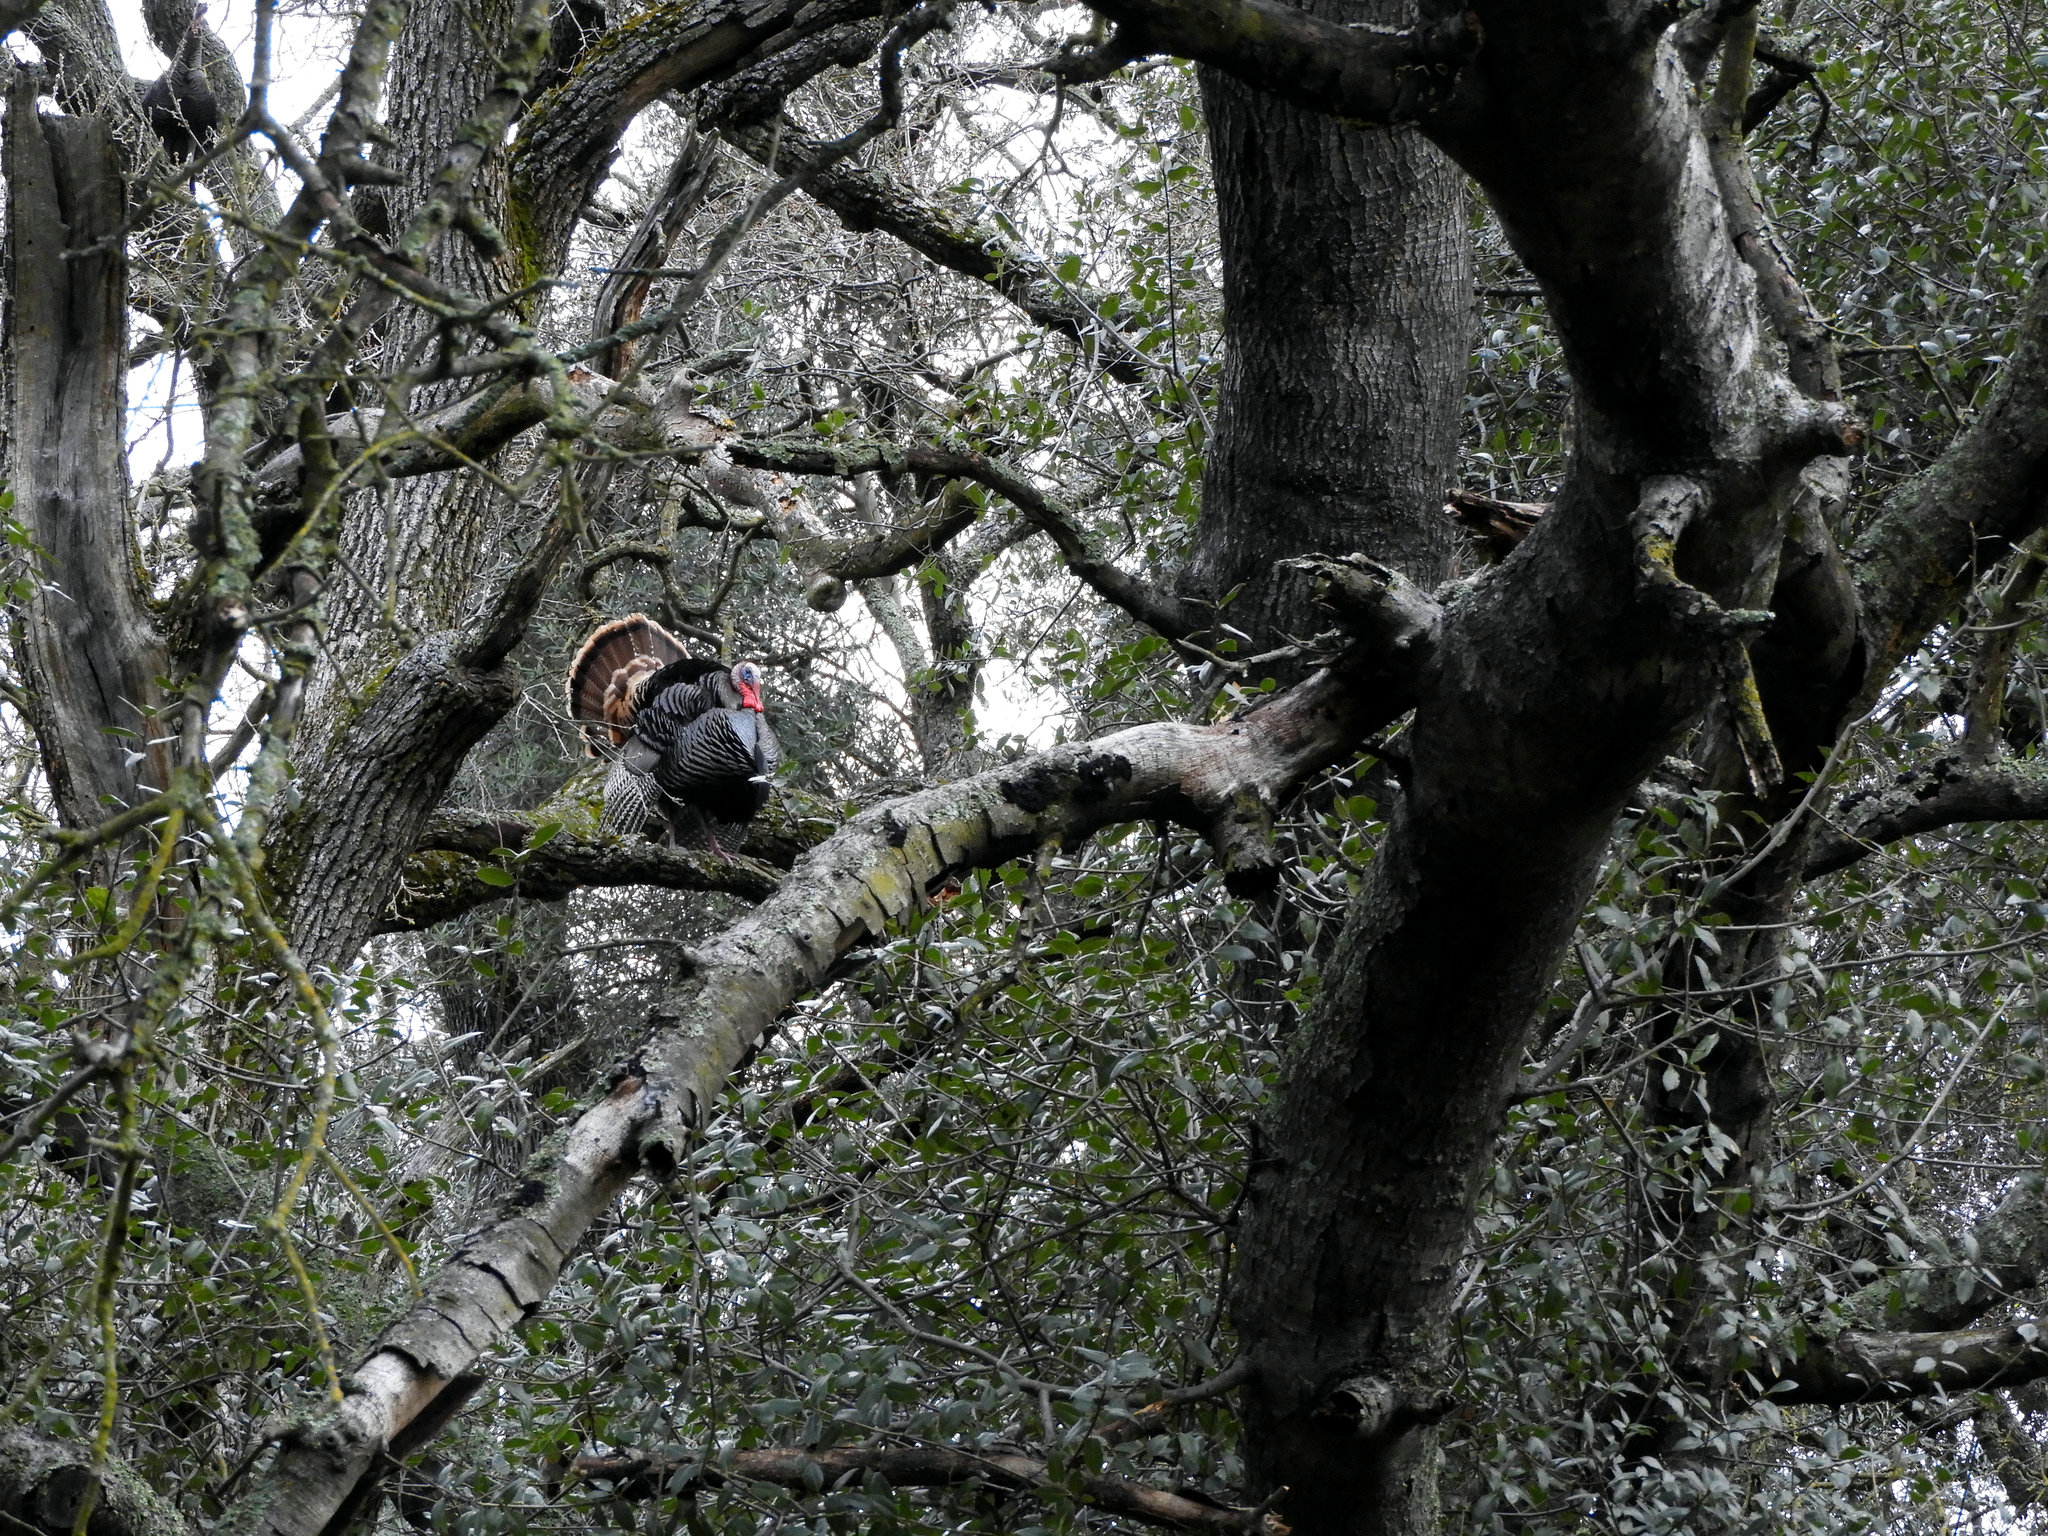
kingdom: Animalia
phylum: Chordata
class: Aves
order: Galliformes
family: Phasianidae
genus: Meleagris
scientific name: Meleagris gallopavo
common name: Wild turkey
